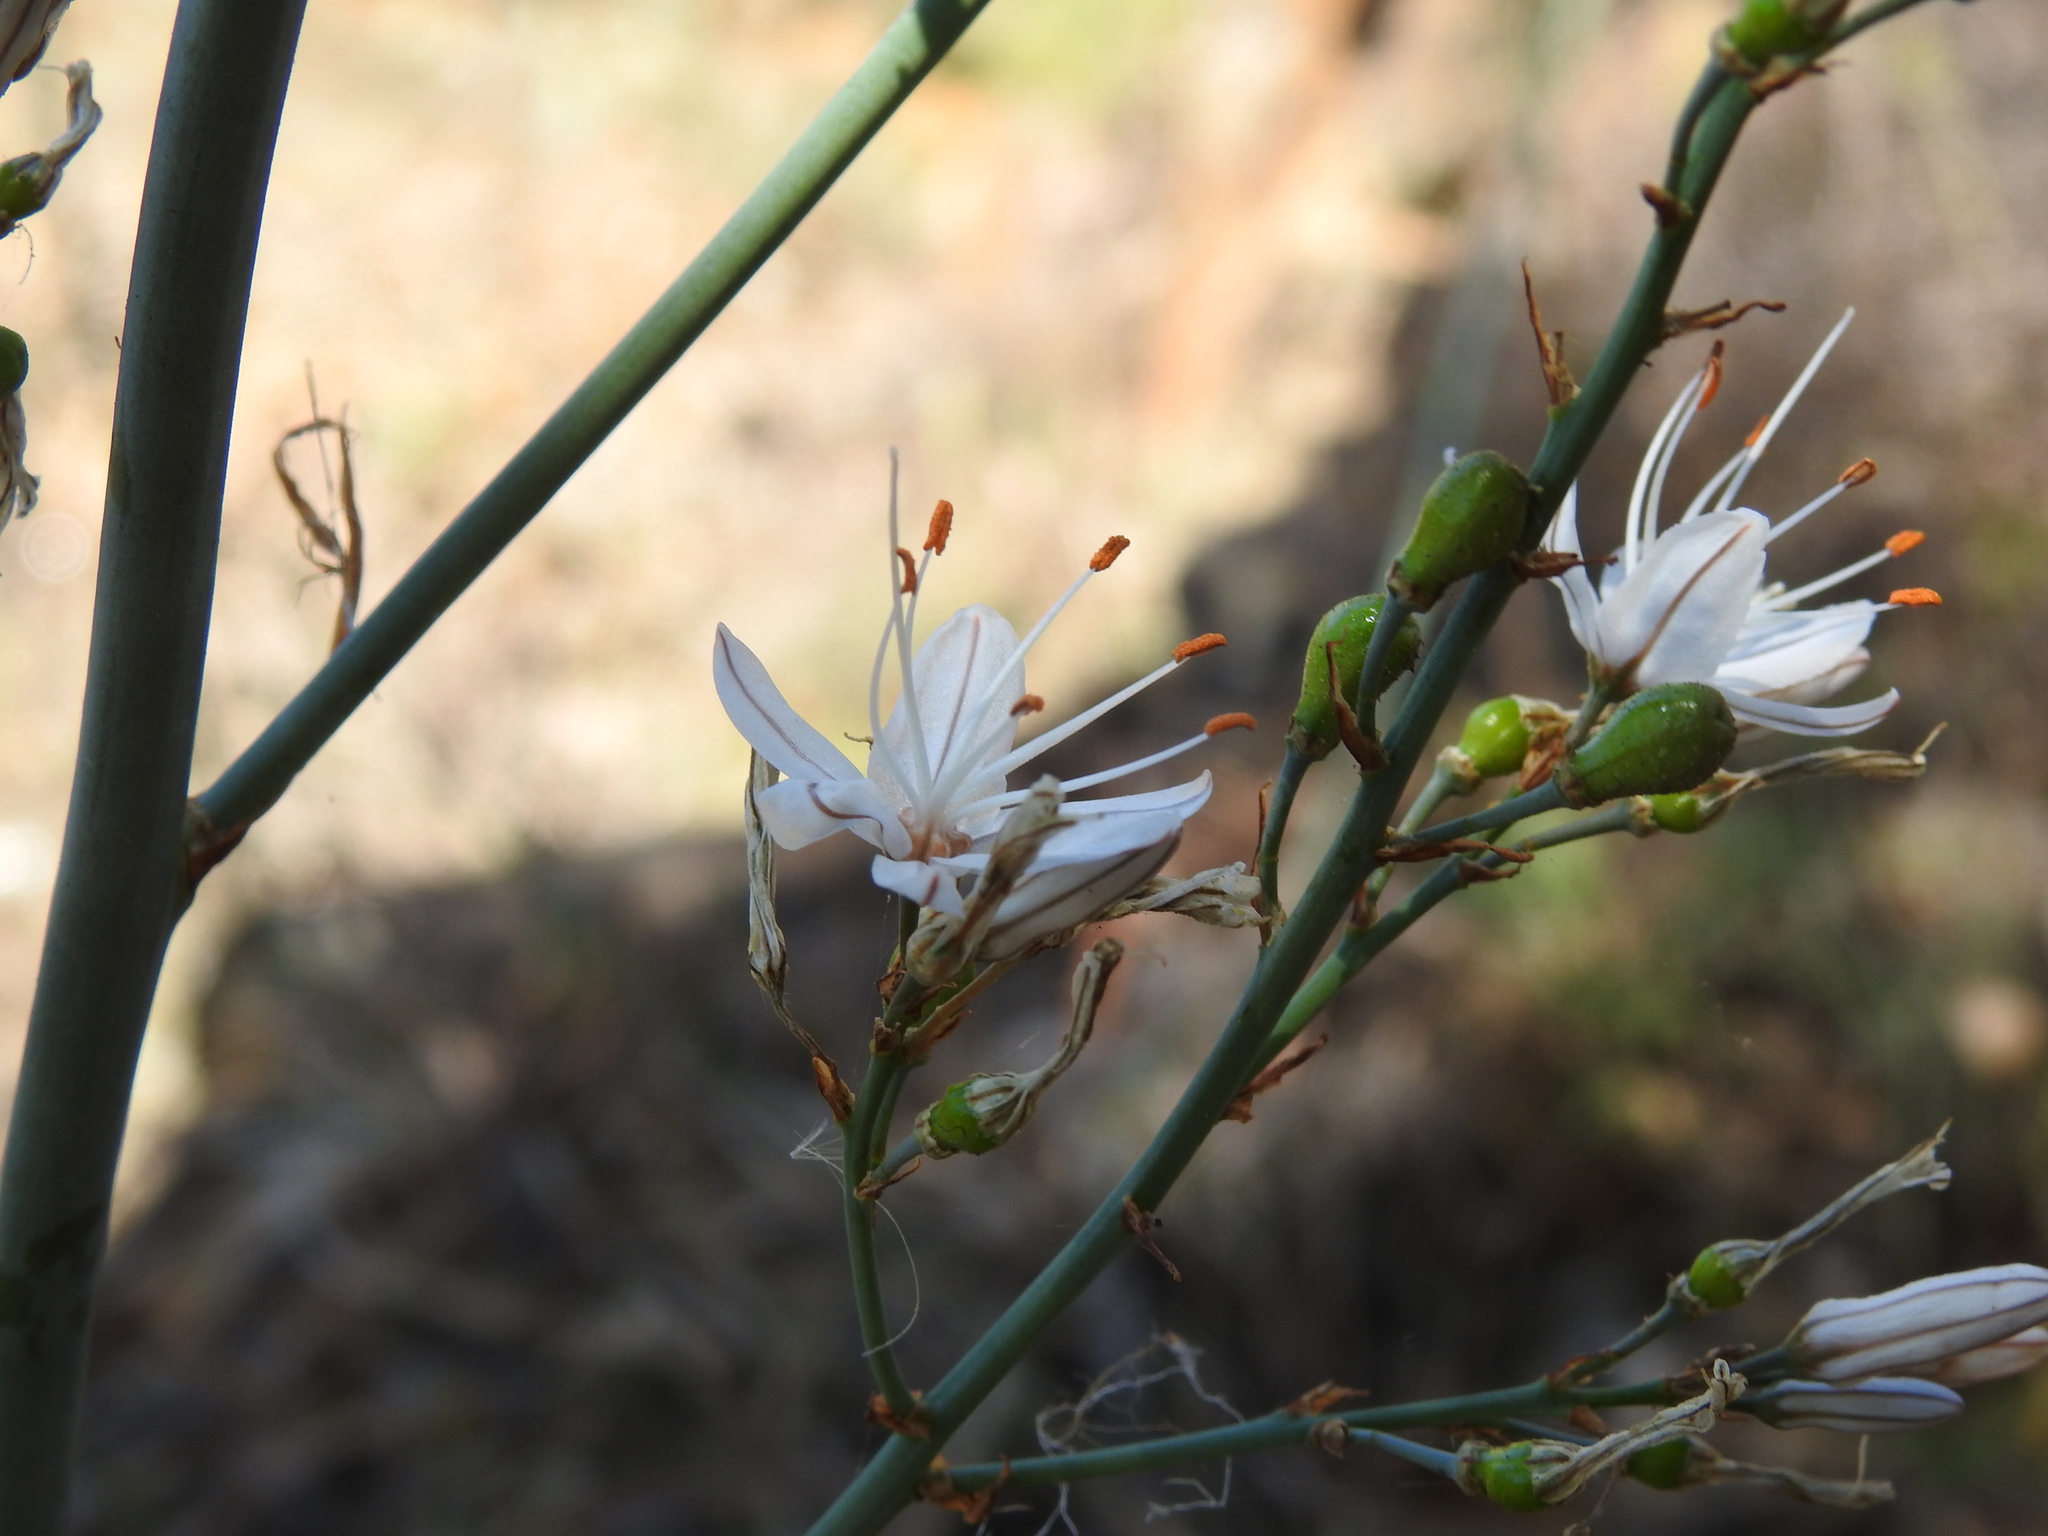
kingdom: Plantae
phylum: Tracheophyta
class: Liliopsida
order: Asparagales
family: Asphodelaceae
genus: Asphodelus
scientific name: Asphodelus serotinus
